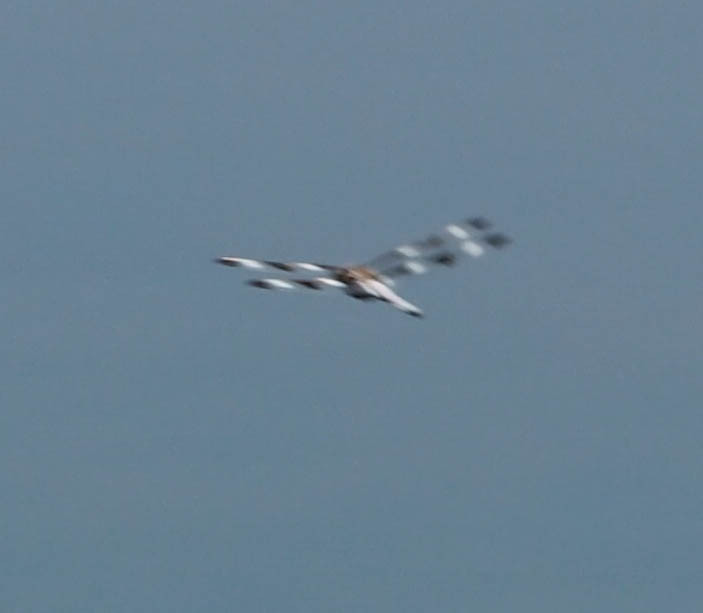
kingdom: Animalia
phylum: Arthropoda
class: Insecta
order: Odonata
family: Libellulidae
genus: Libellula
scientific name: Libellula pulchella
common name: Twelve-spotted skimmer
